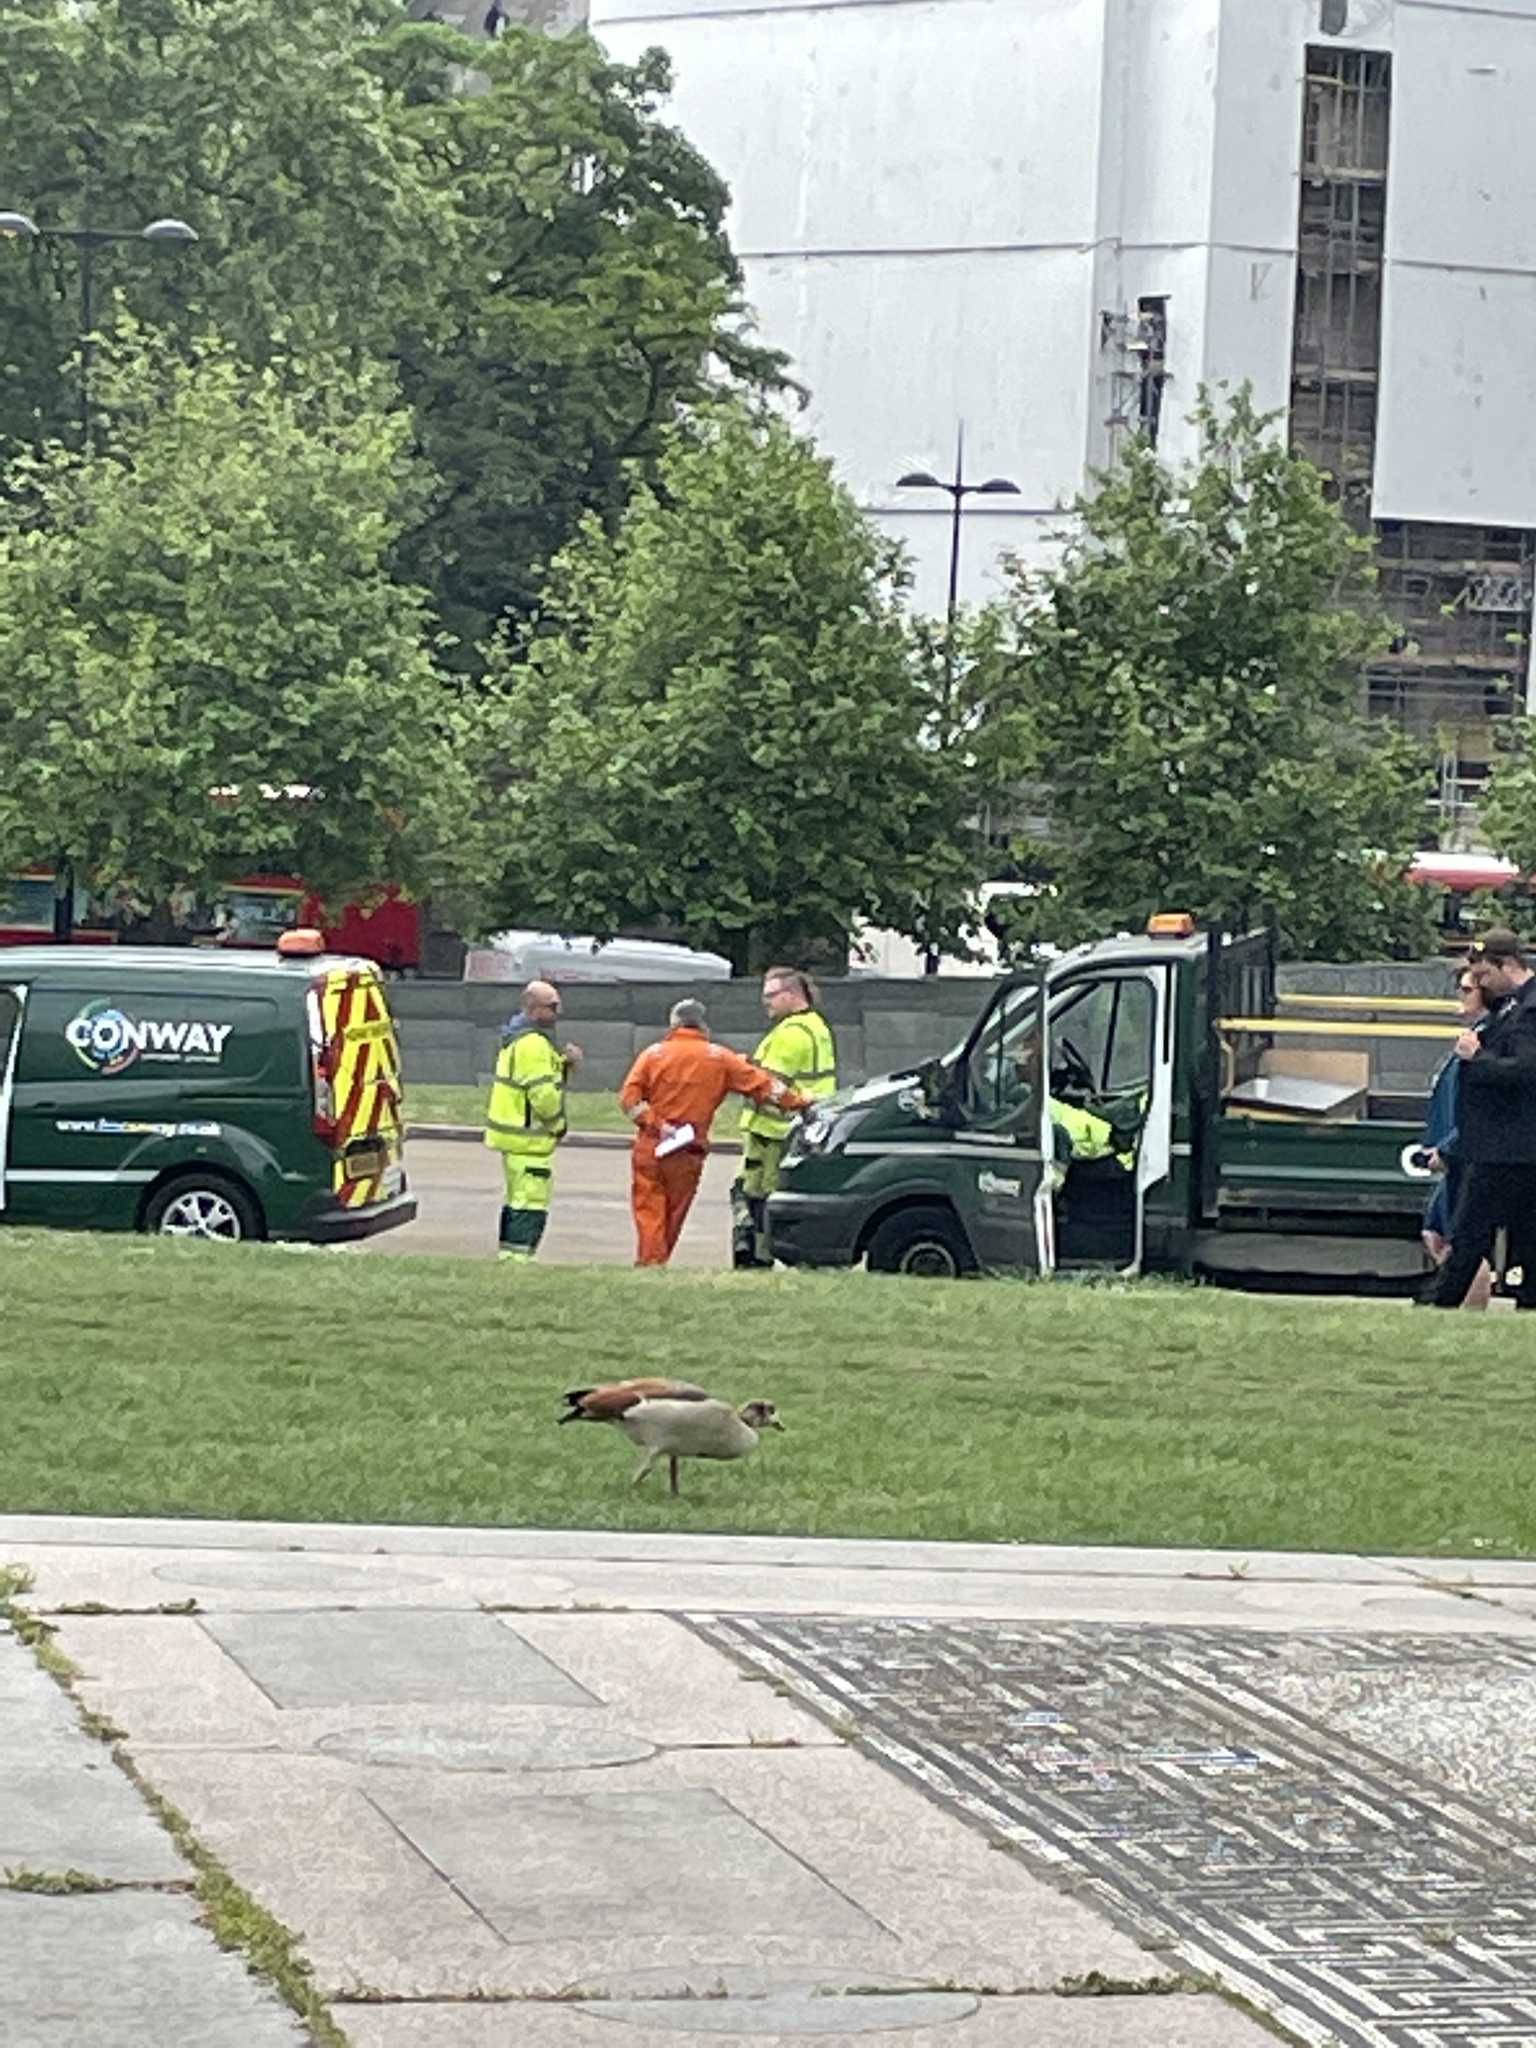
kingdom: Animalia
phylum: Chordata
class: Aves
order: Anseriformes
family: Anatidae
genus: Alopochen
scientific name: Alopochen aegyptiaca
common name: Egyptian goose
